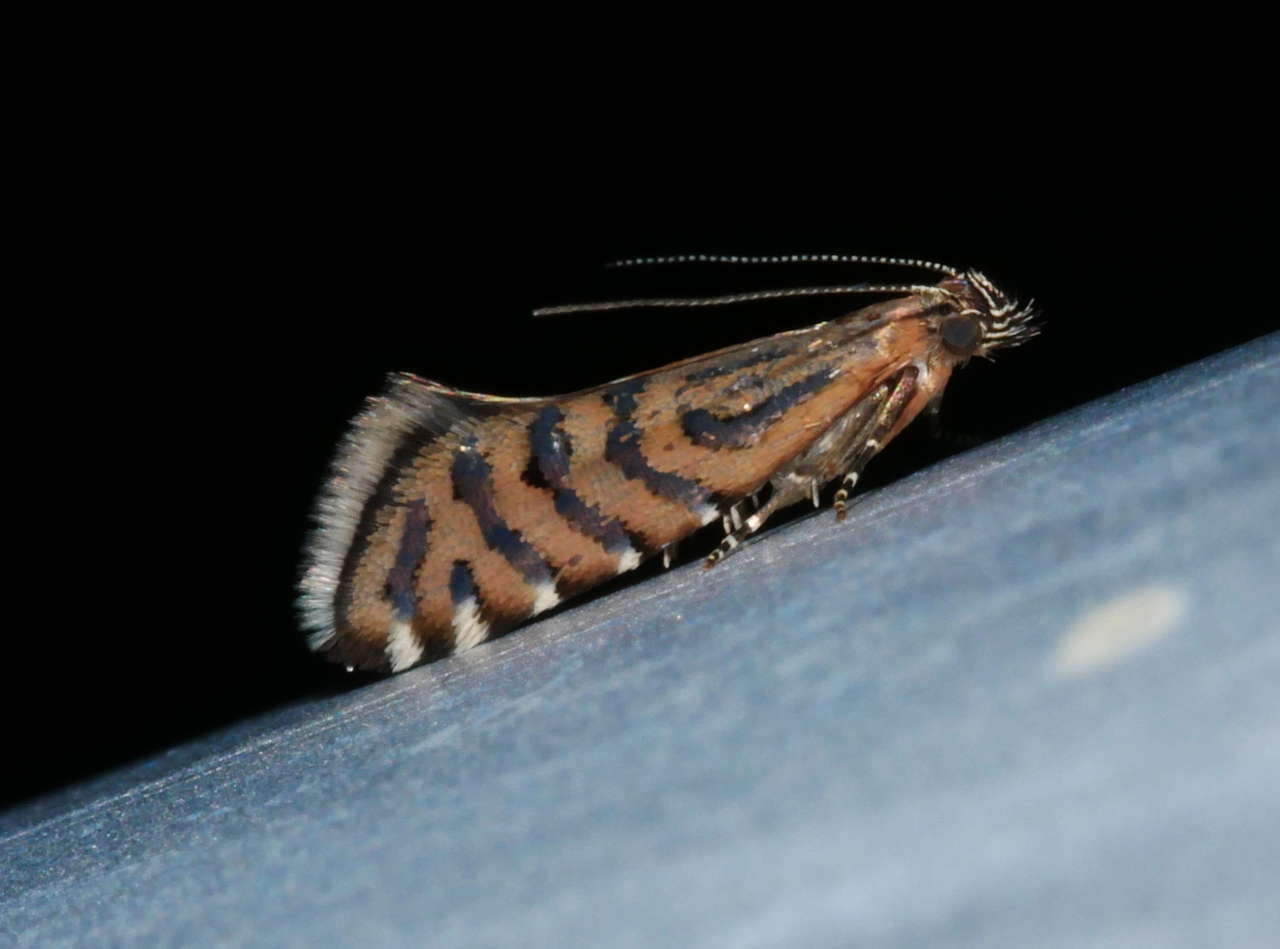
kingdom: Animalia
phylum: Arthropoda
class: Insecta
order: Lepidoptera
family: Glyphipterigidae
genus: Glyphipterix
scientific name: Glyphipterix perimetalla
